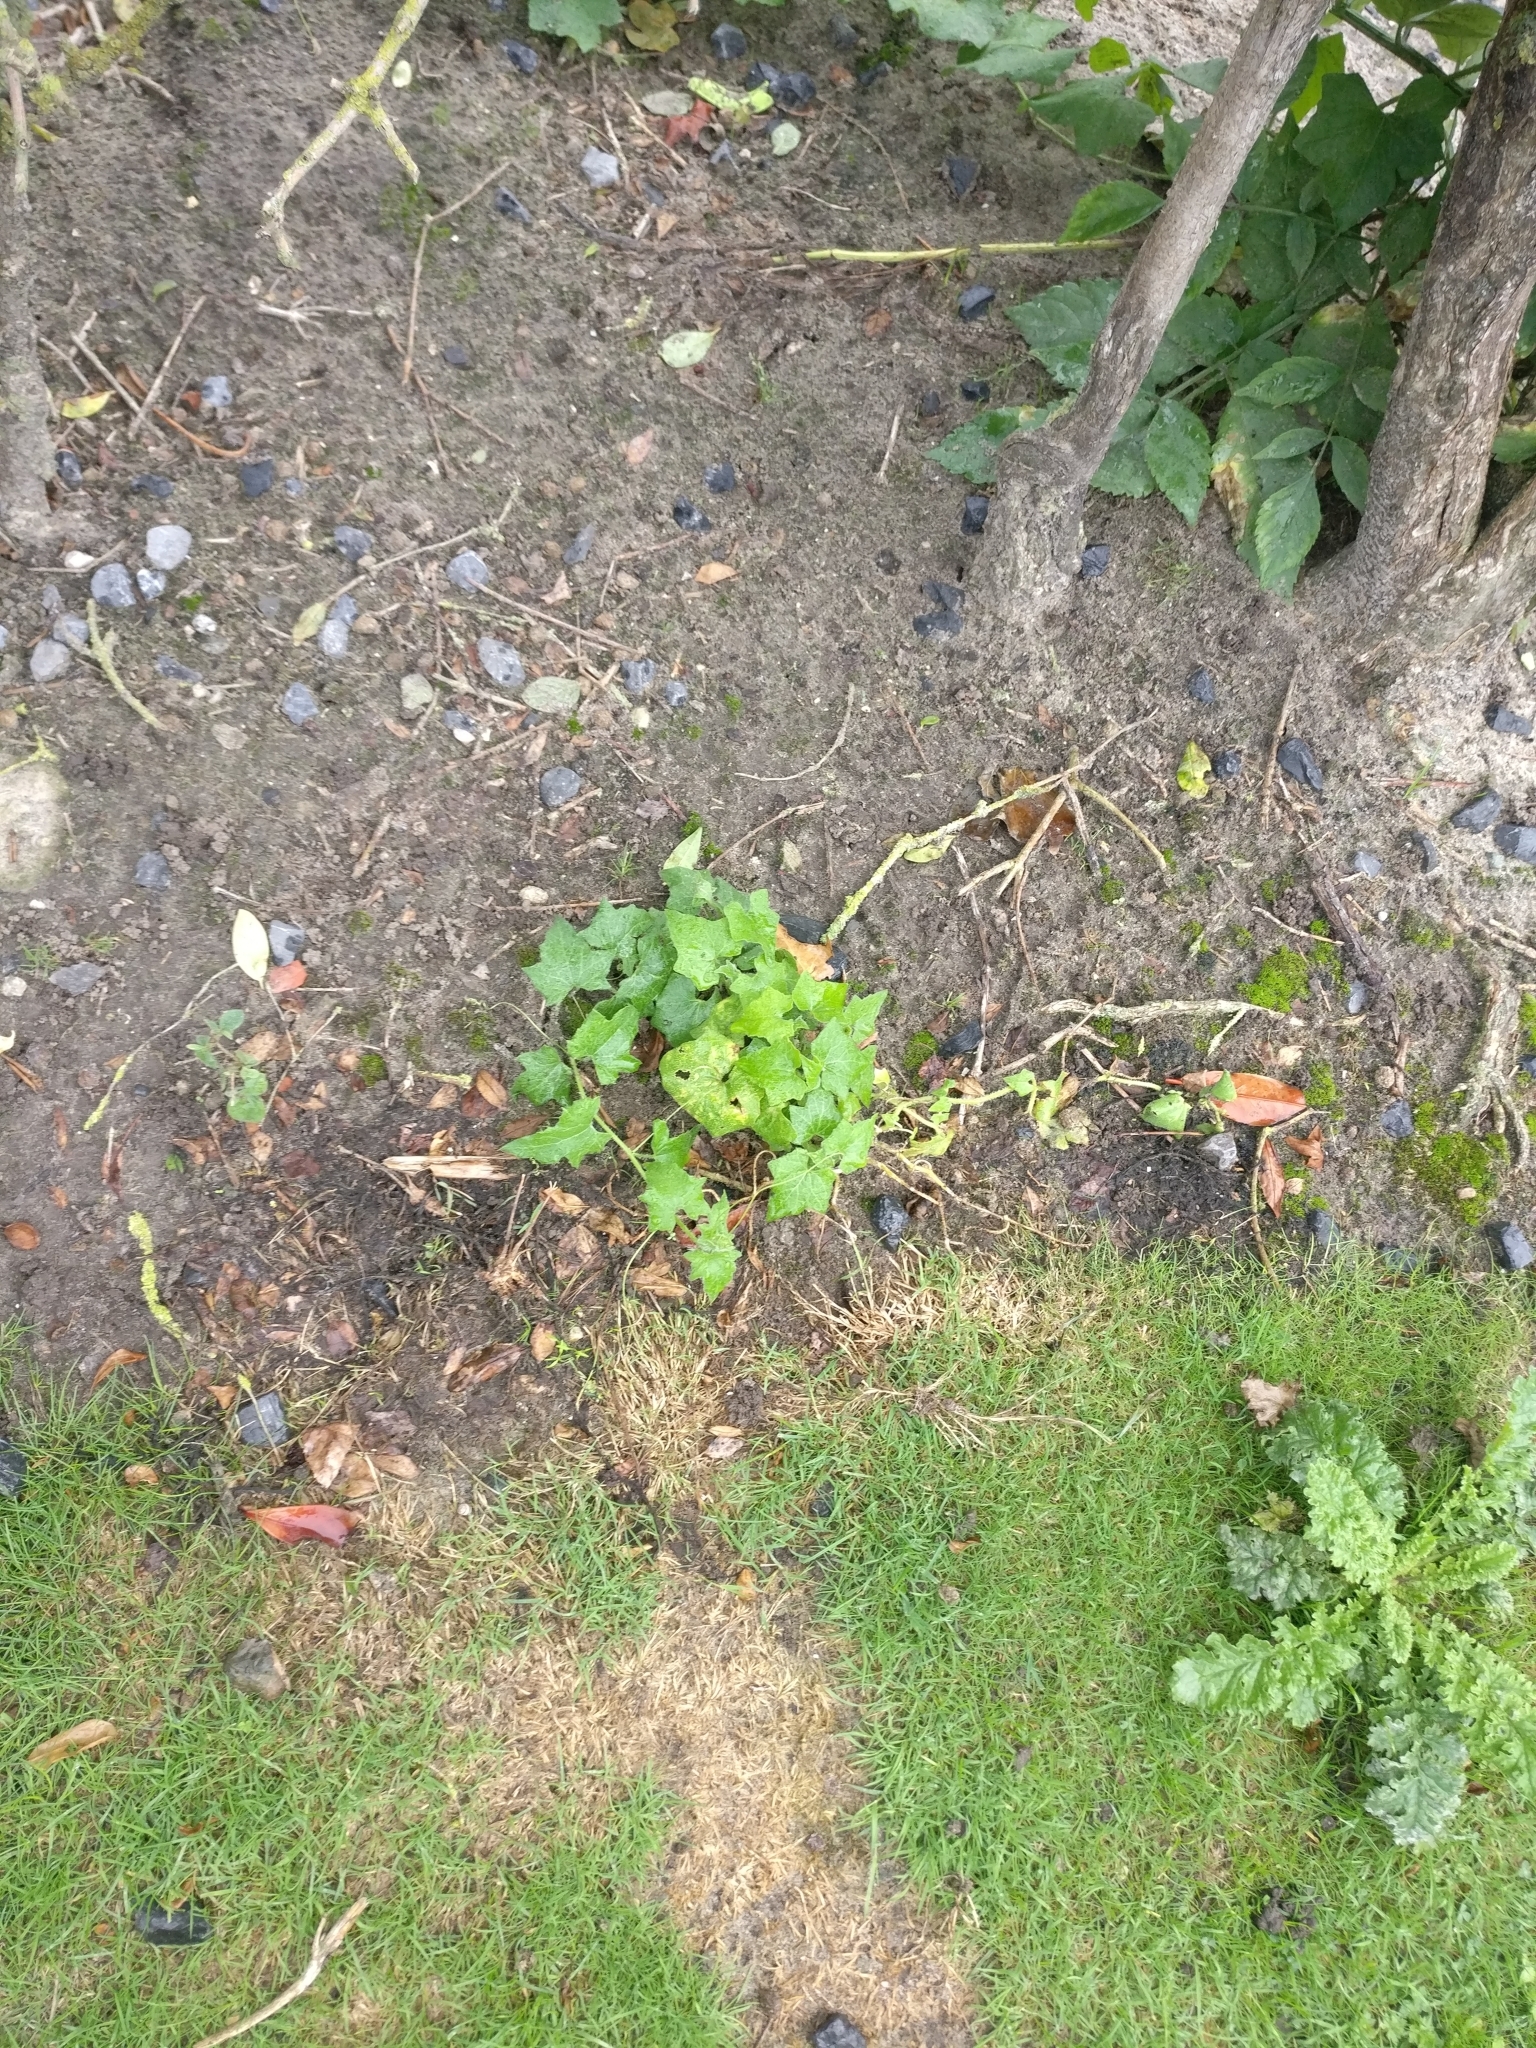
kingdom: Plantae
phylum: Tracheophyta
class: Magnoliopsida
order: Cucurbitales
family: Cucurbitaceae
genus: Bryonia
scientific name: Bryonia cretica
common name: Cretan bryony
